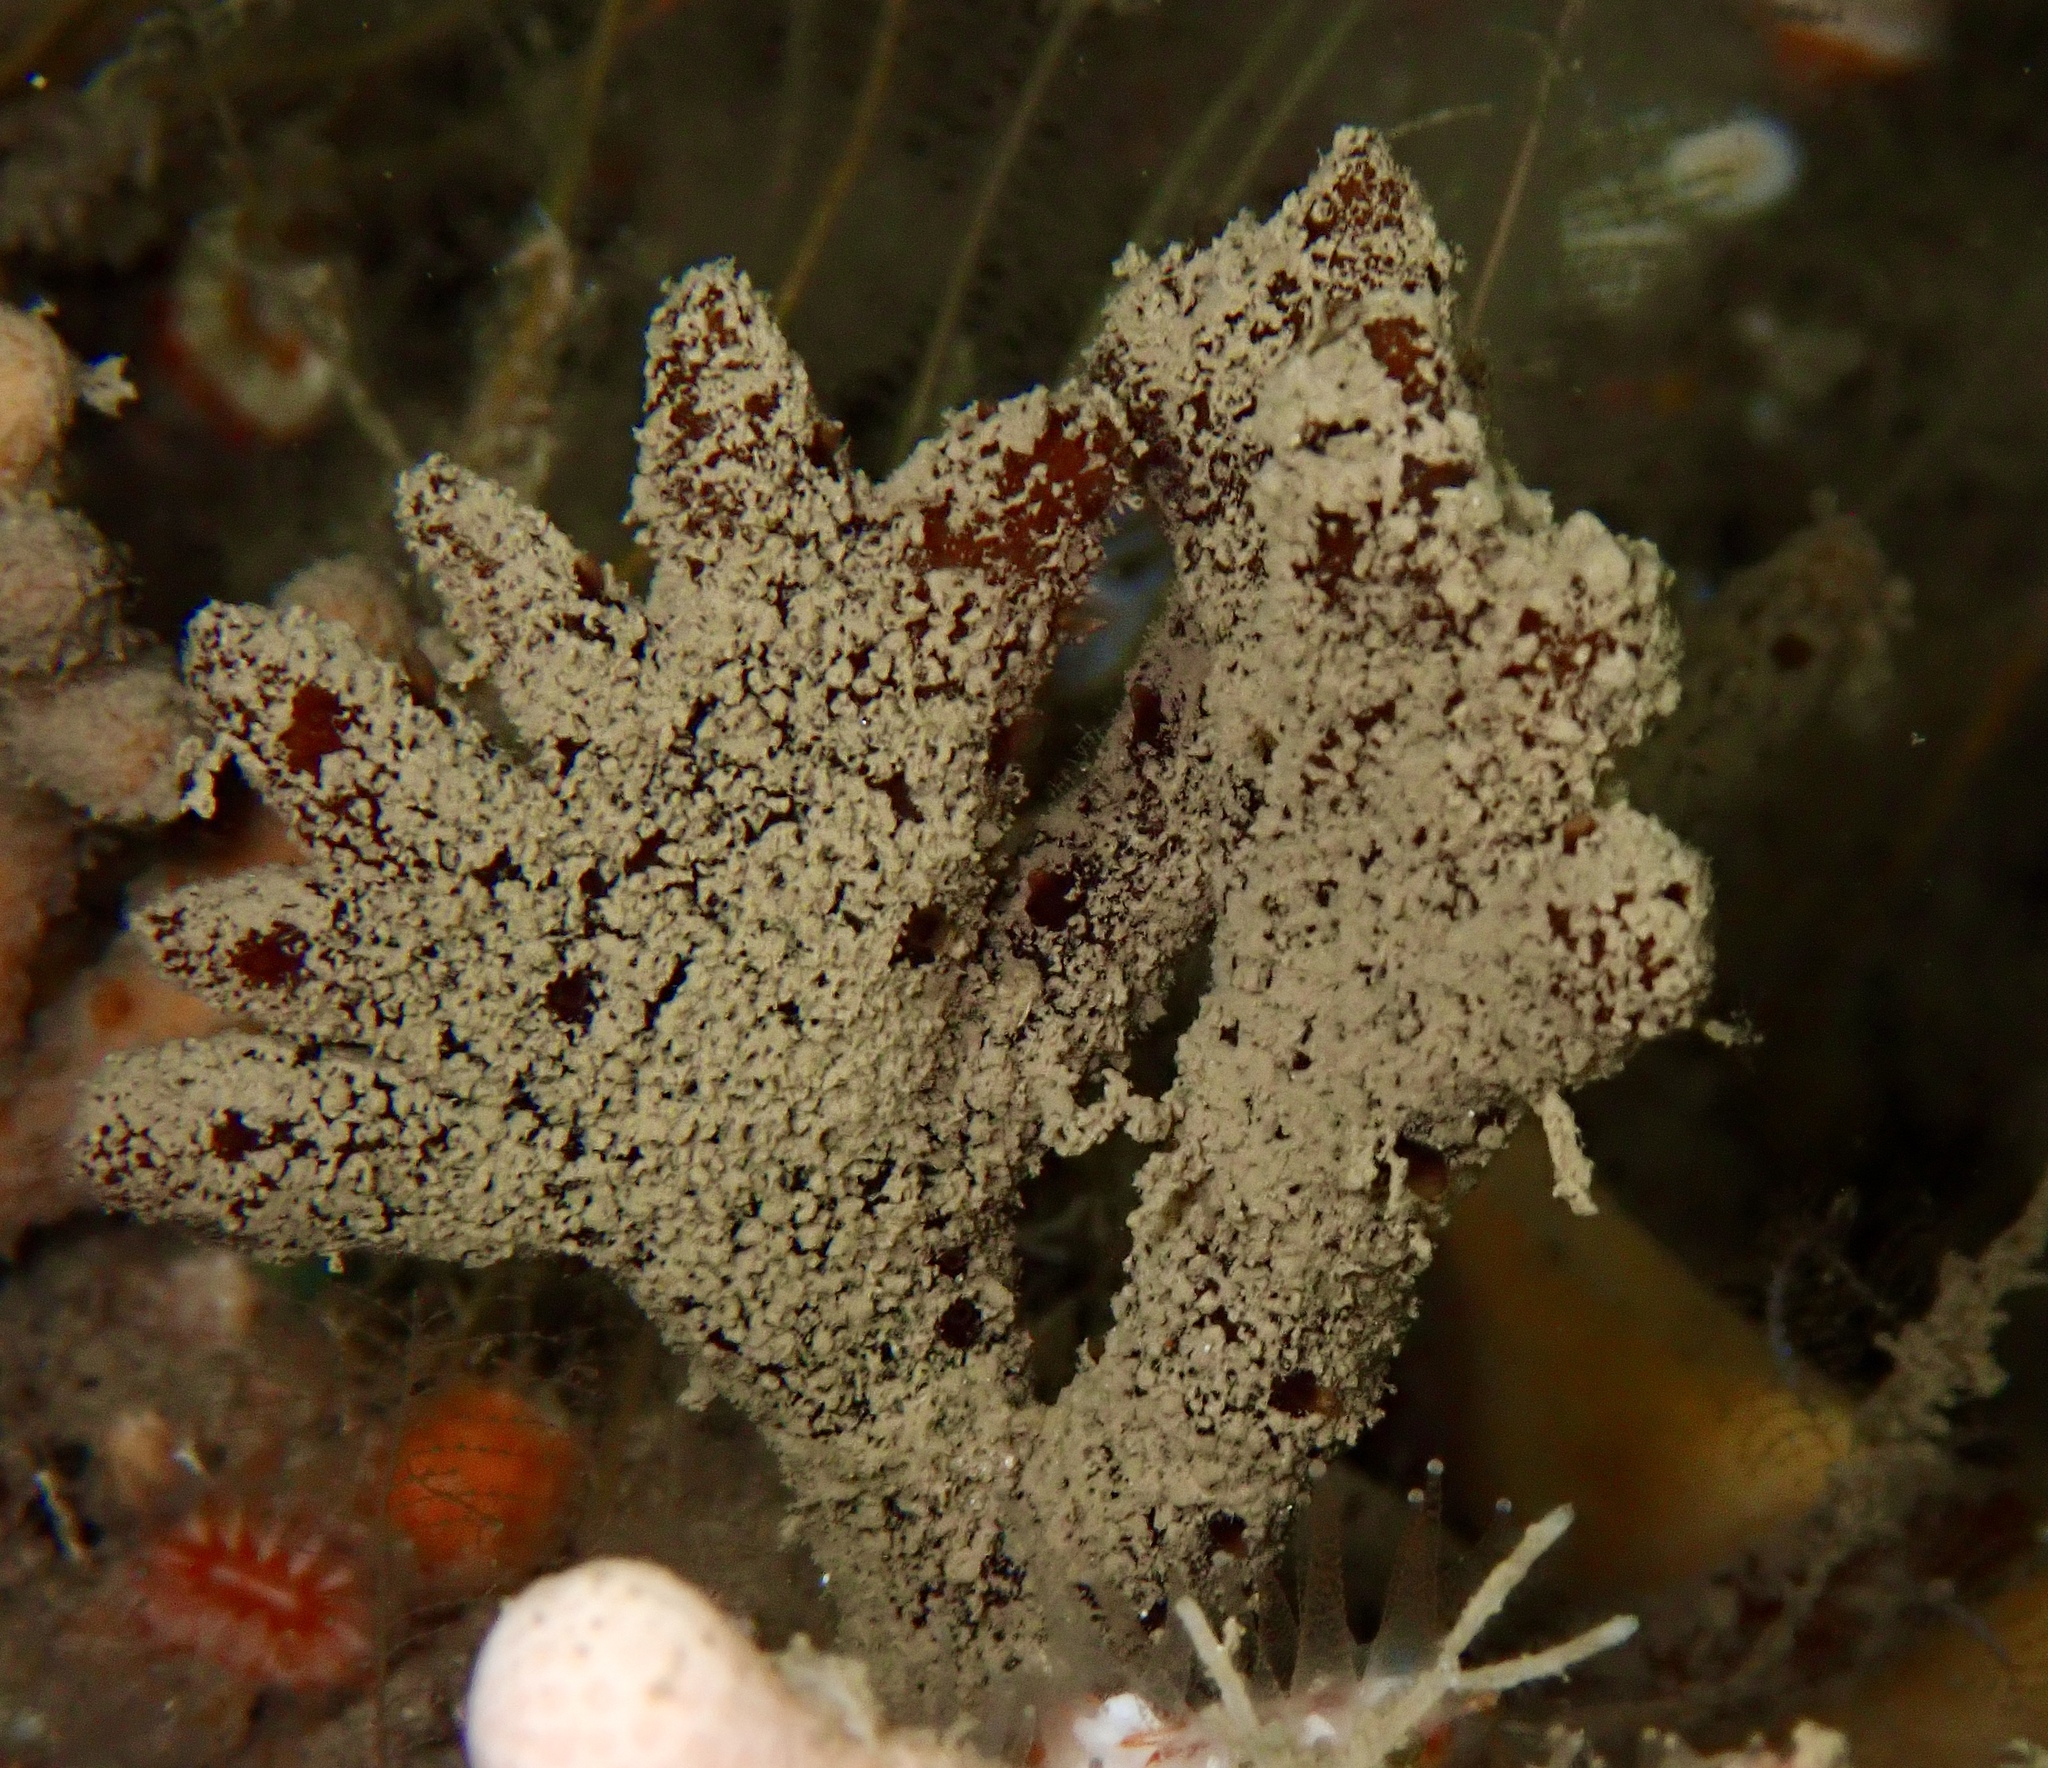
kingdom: Animalia
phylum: Porifera
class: Demospongiae
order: Axinellida
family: Raspailiidae
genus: Raspailia
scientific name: Raspailia ramosa
